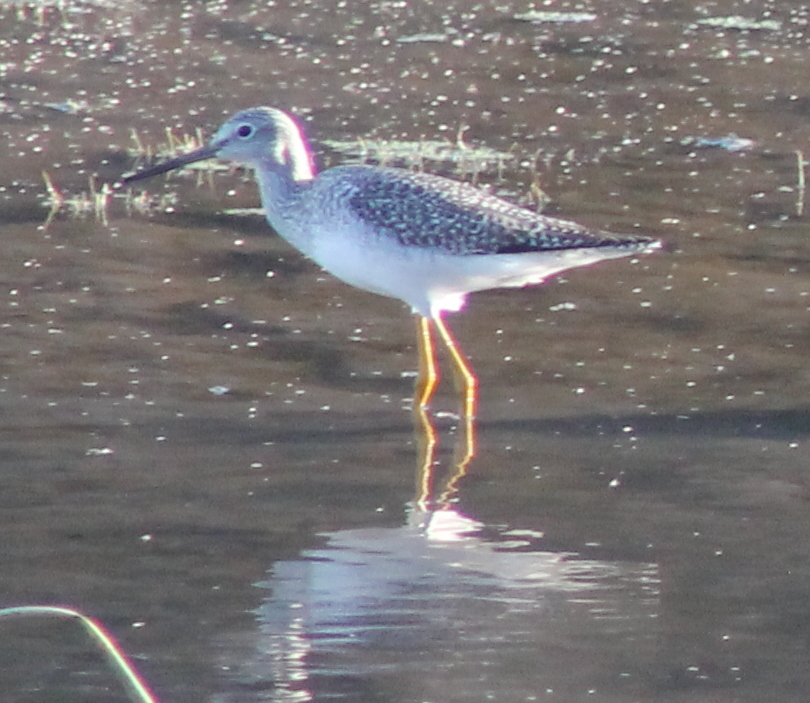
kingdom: Animalia
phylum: Chordata
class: Aves
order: Charadriiformes
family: Scolopacidae
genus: Tringa
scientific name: Tringa melanoleuca
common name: Greater yellowlegs
